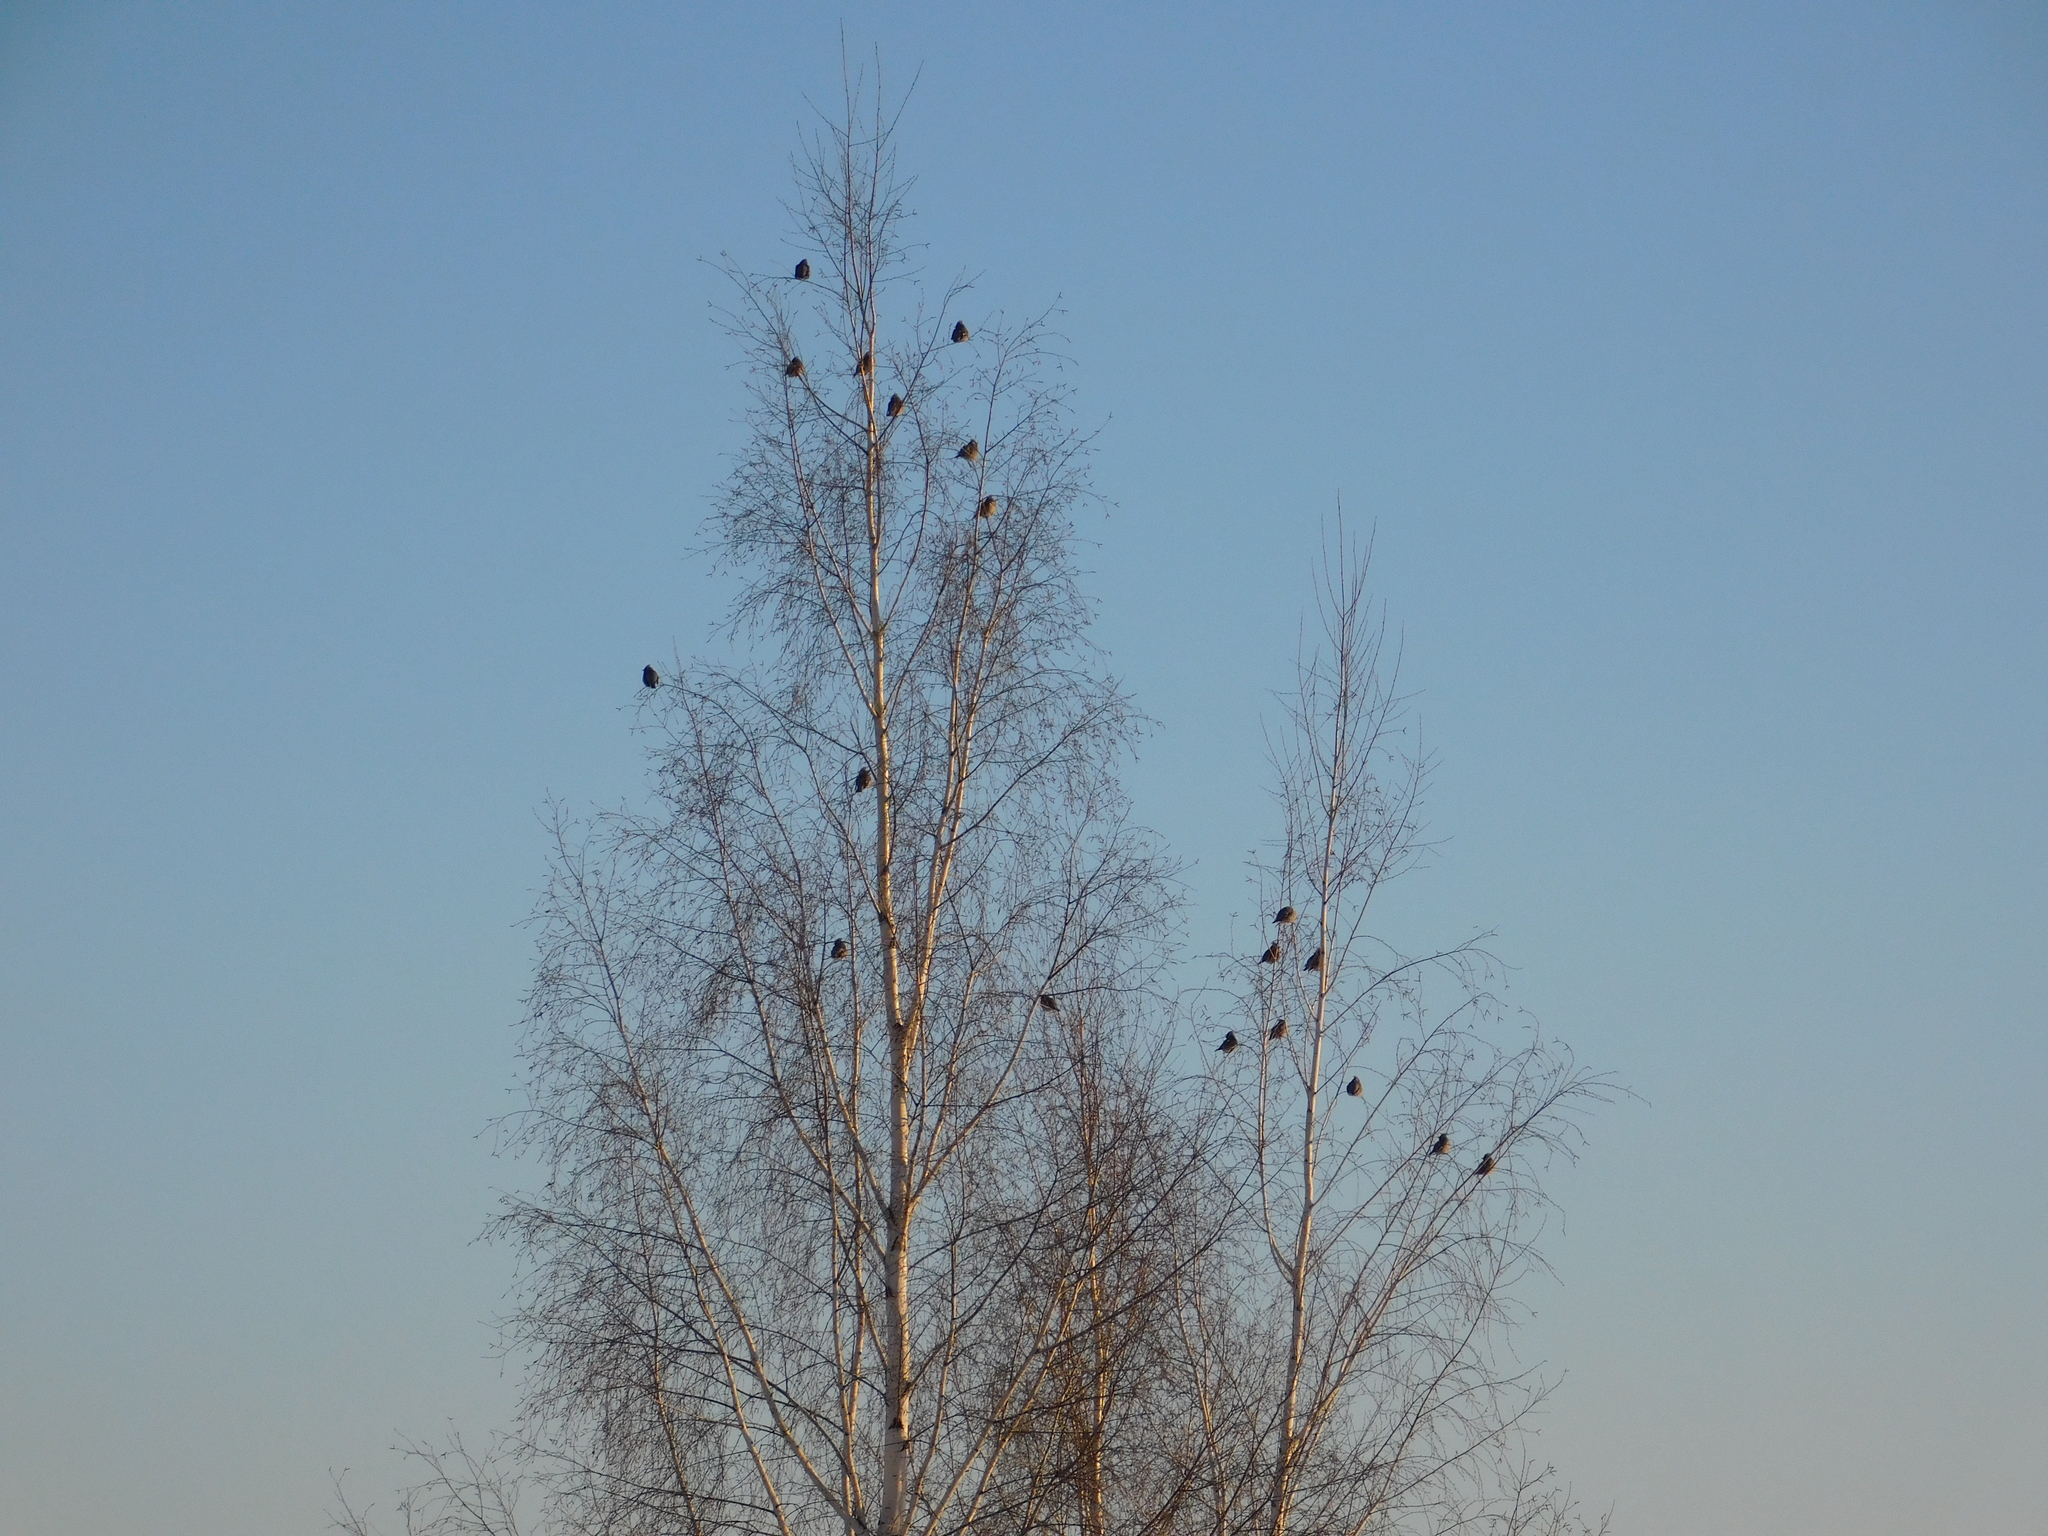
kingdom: Animalia
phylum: Chordata
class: Aves
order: Passeriformes
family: Bombycillidae
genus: Bombycilla
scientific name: Bombycilla garrulus
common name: Bohemian waxwing
